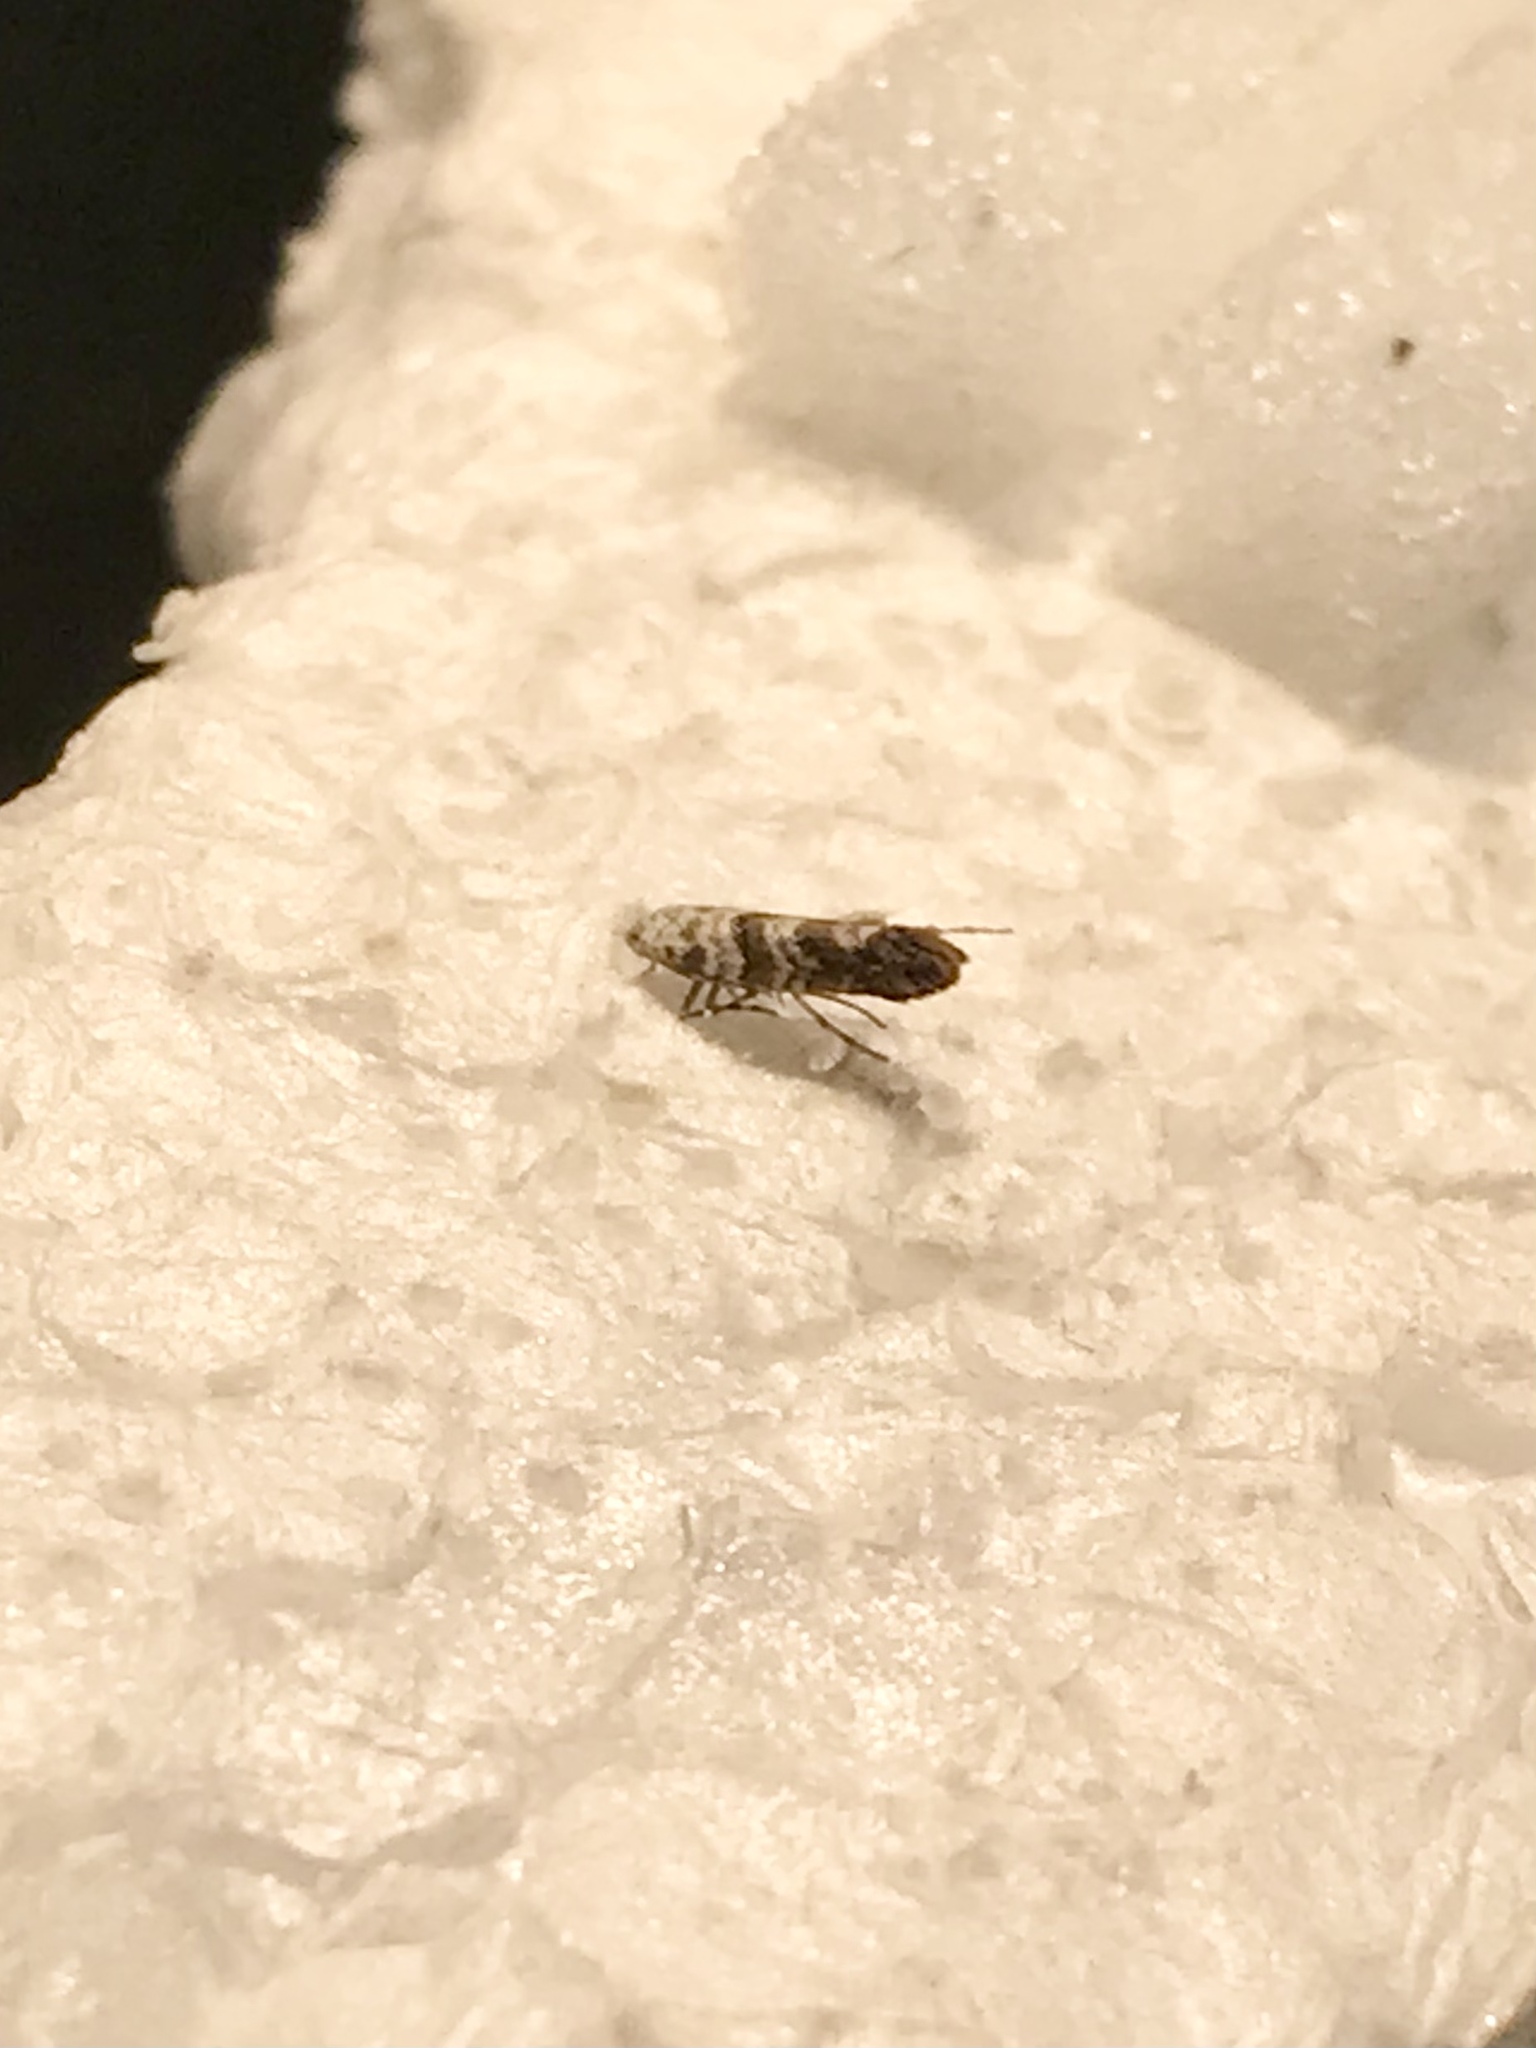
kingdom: Animalia
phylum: Arthropoda
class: Insecta
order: Lepidoptera
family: Gracillariidae
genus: Cameraria
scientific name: Cameraria hamadryadella
